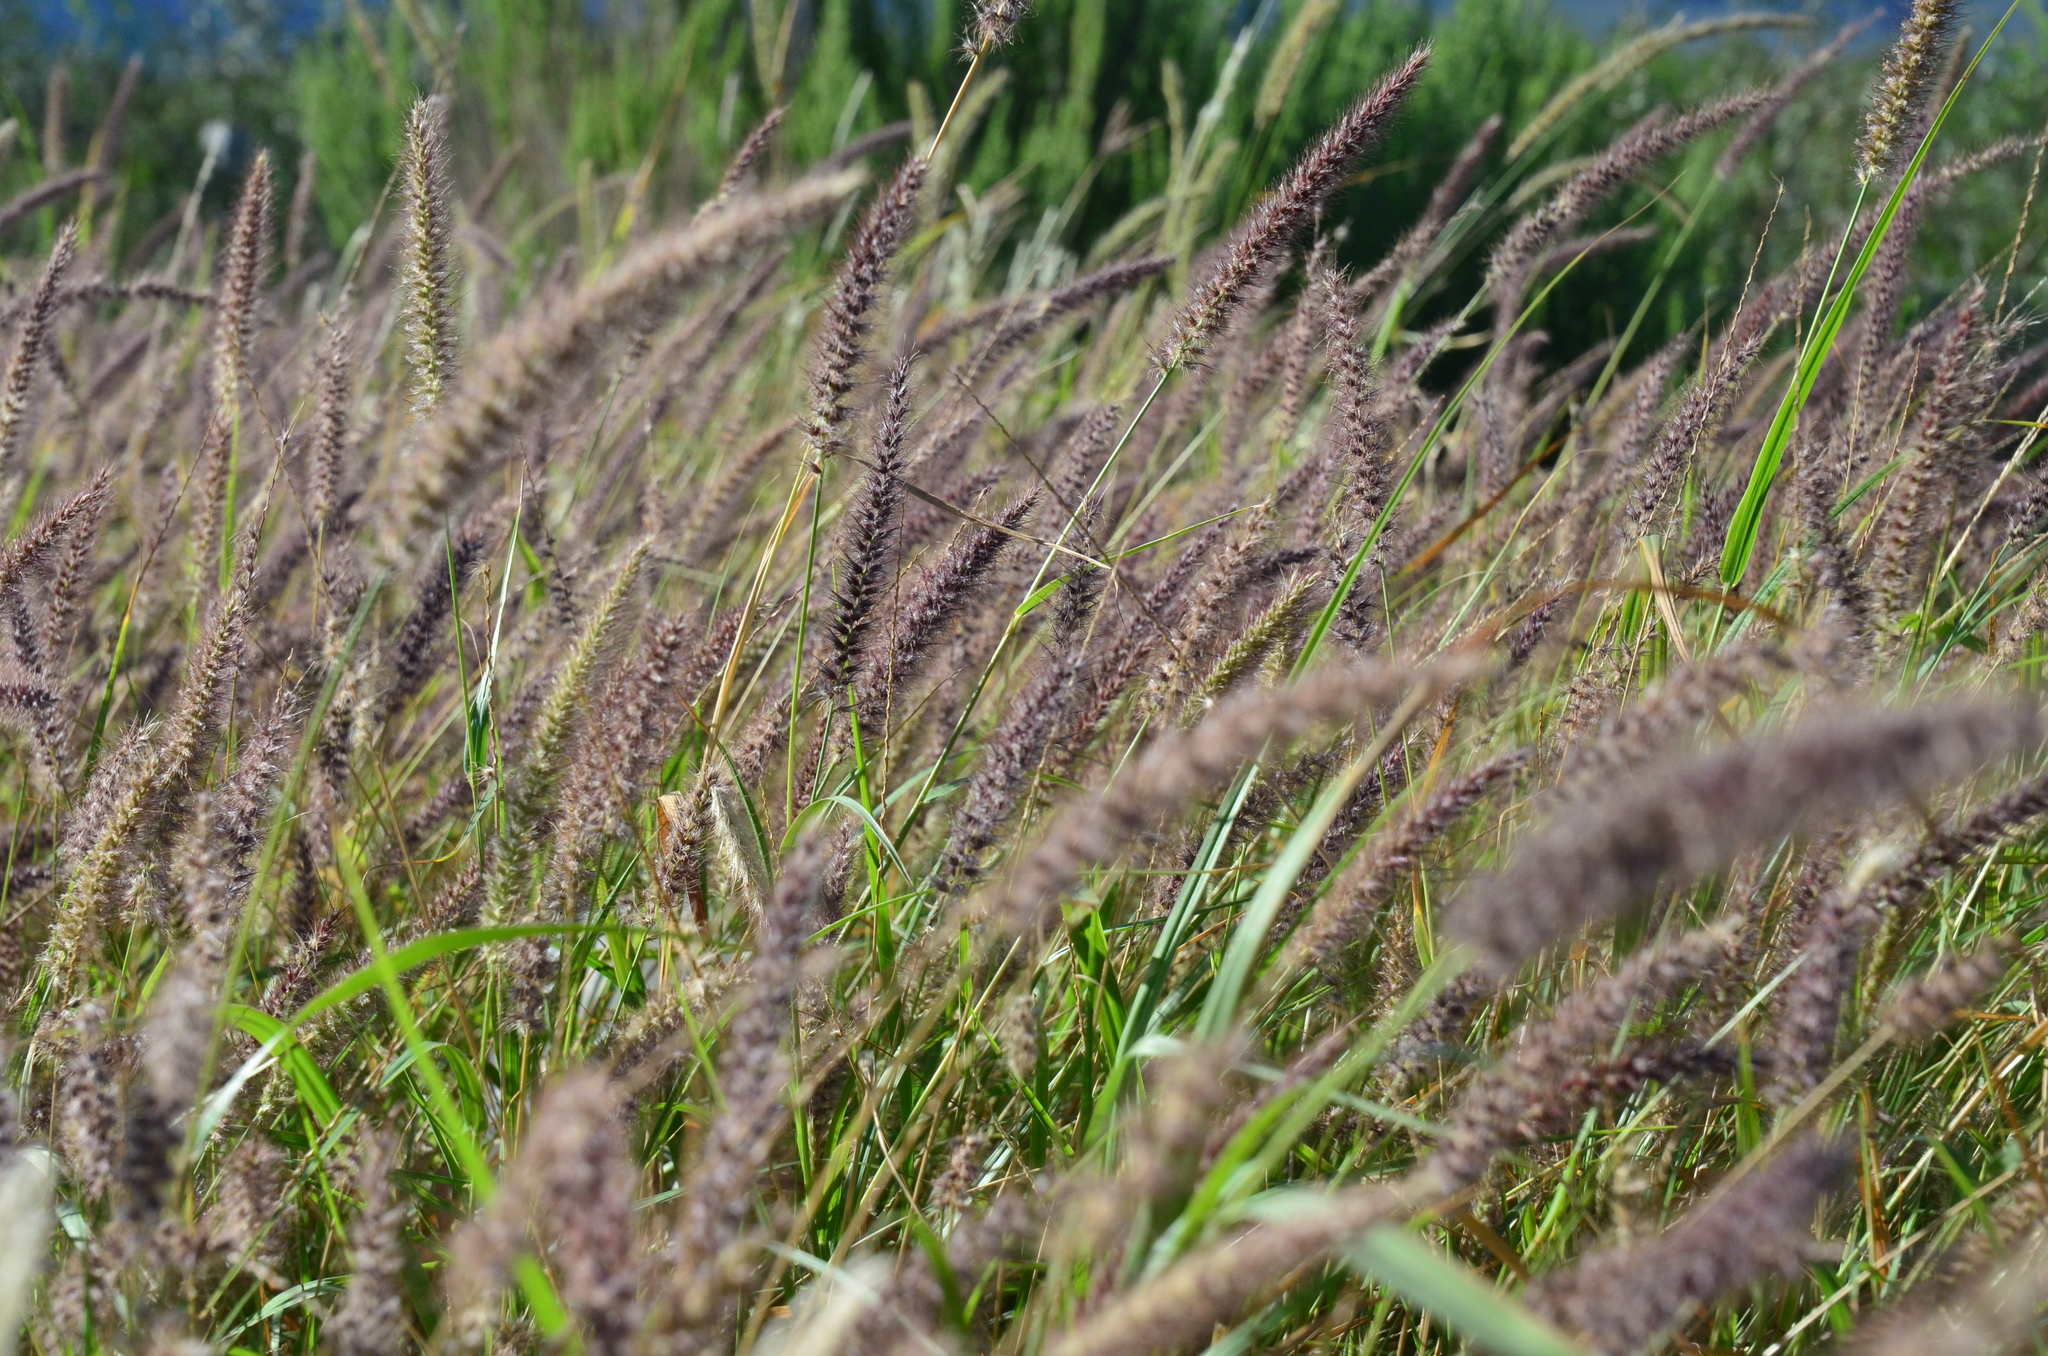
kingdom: Plantae
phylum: Tracheophyta
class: Liliopsida
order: Poales
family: Poaceae
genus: Cenchrus
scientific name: Cenchrus ciliaris
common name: Buffelgrass
